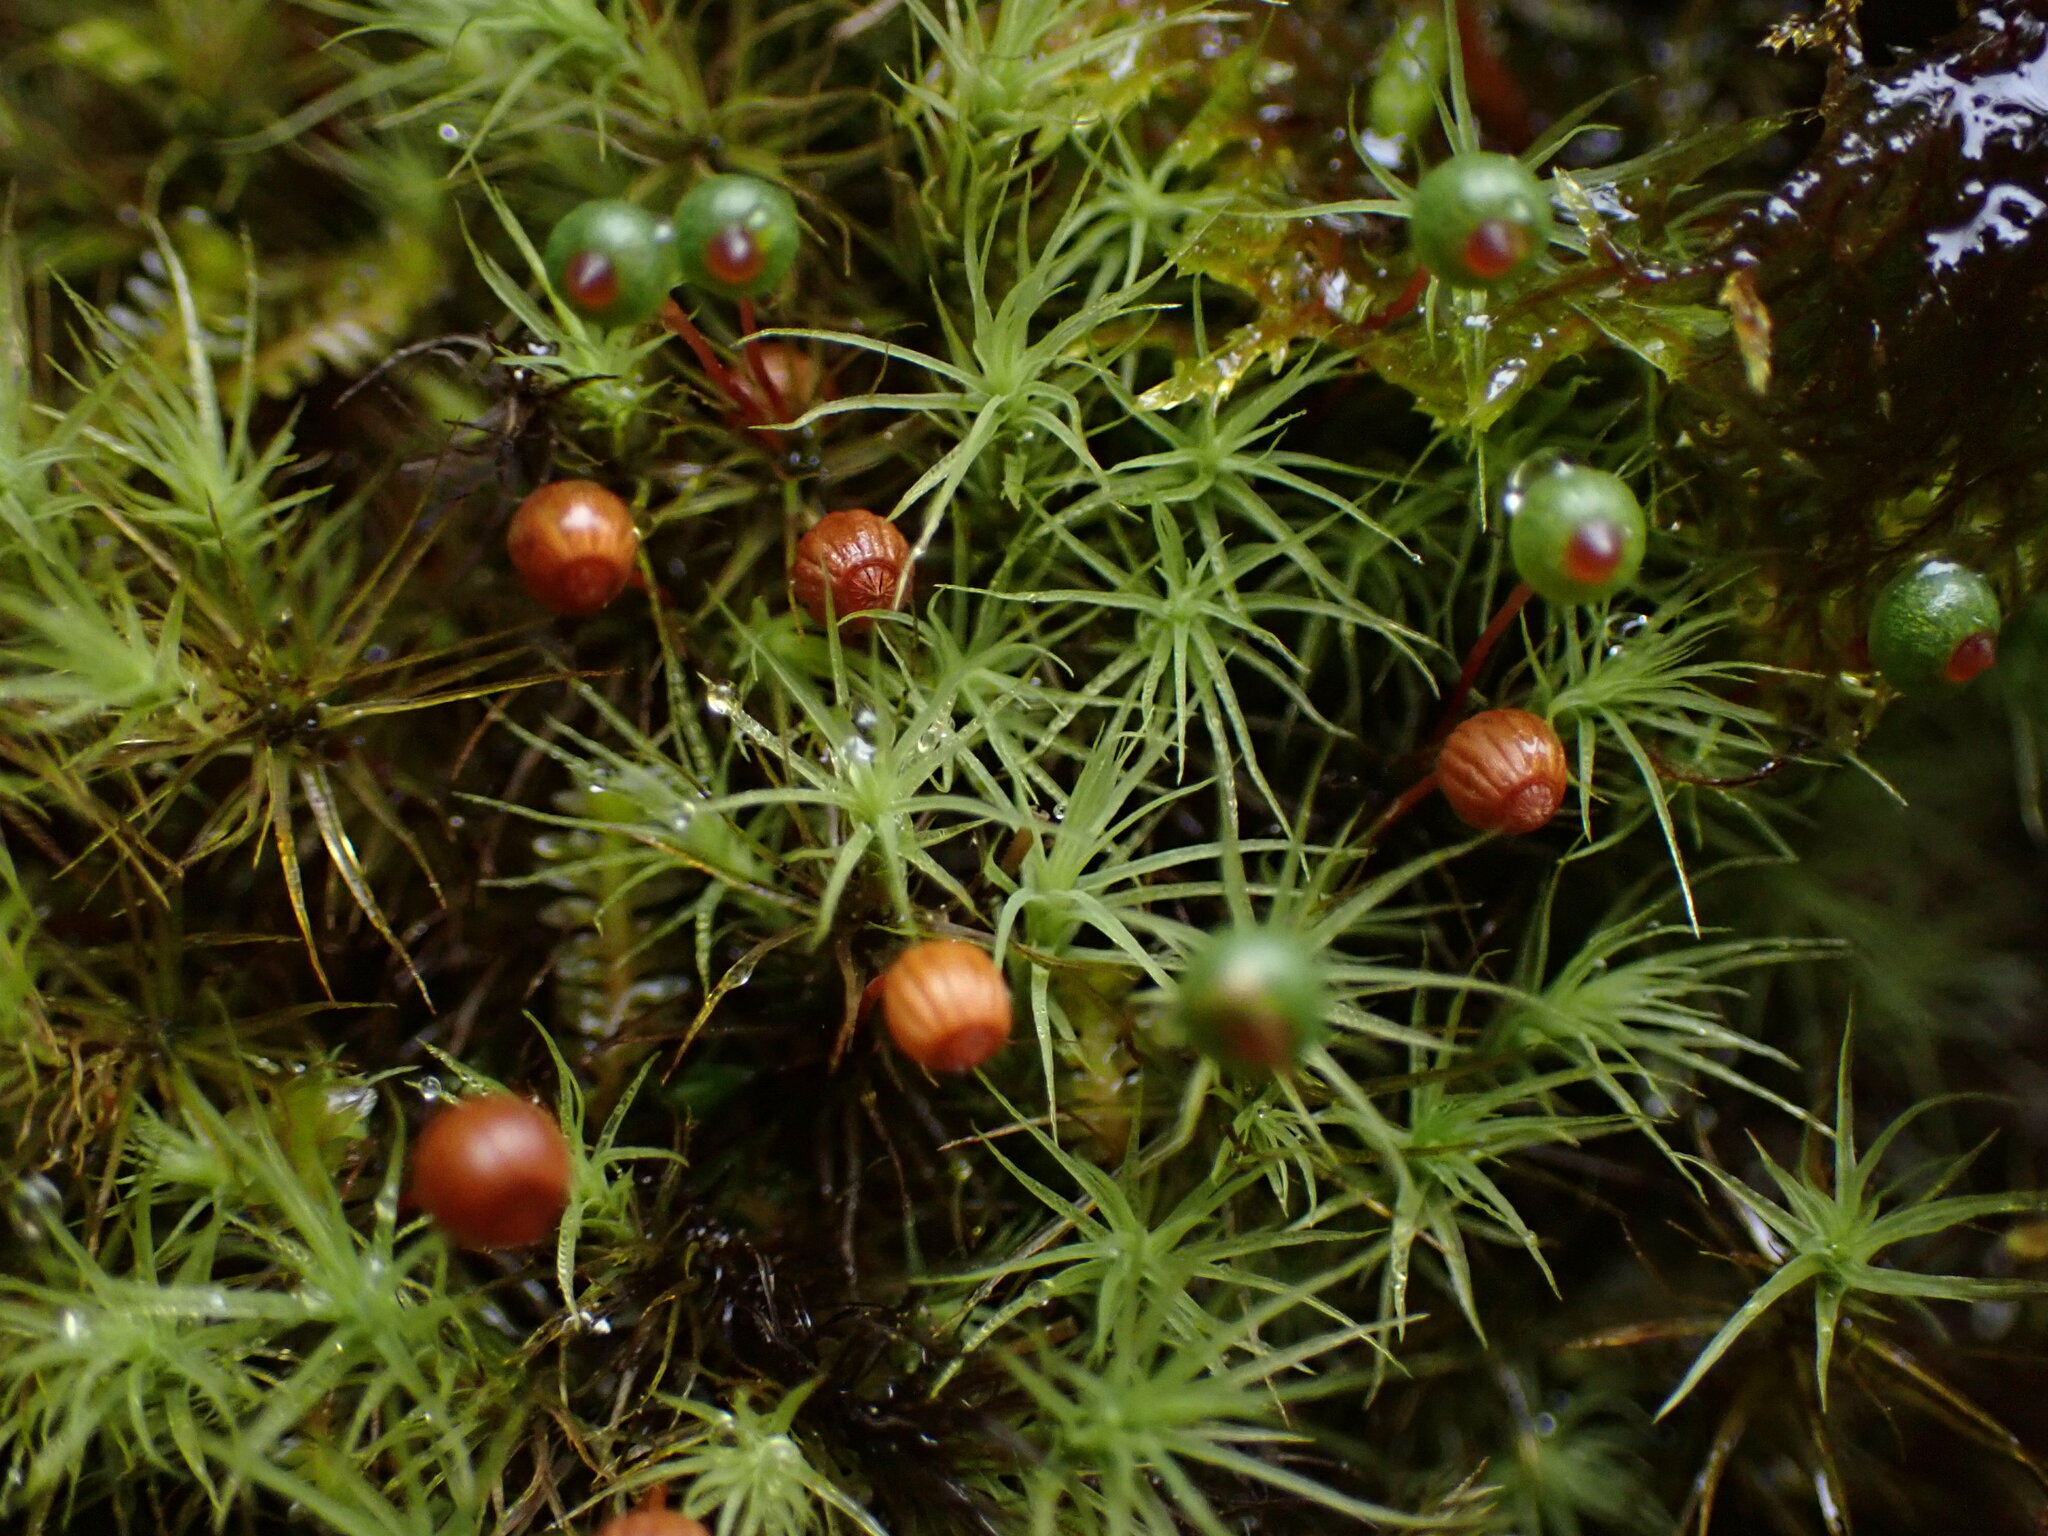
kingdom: Plantae
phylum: Bryophyta
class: Bryopsida
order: Bartramiales
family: Bartramiaceae
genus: Bartramia
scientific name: Bartramia ithyphylla
